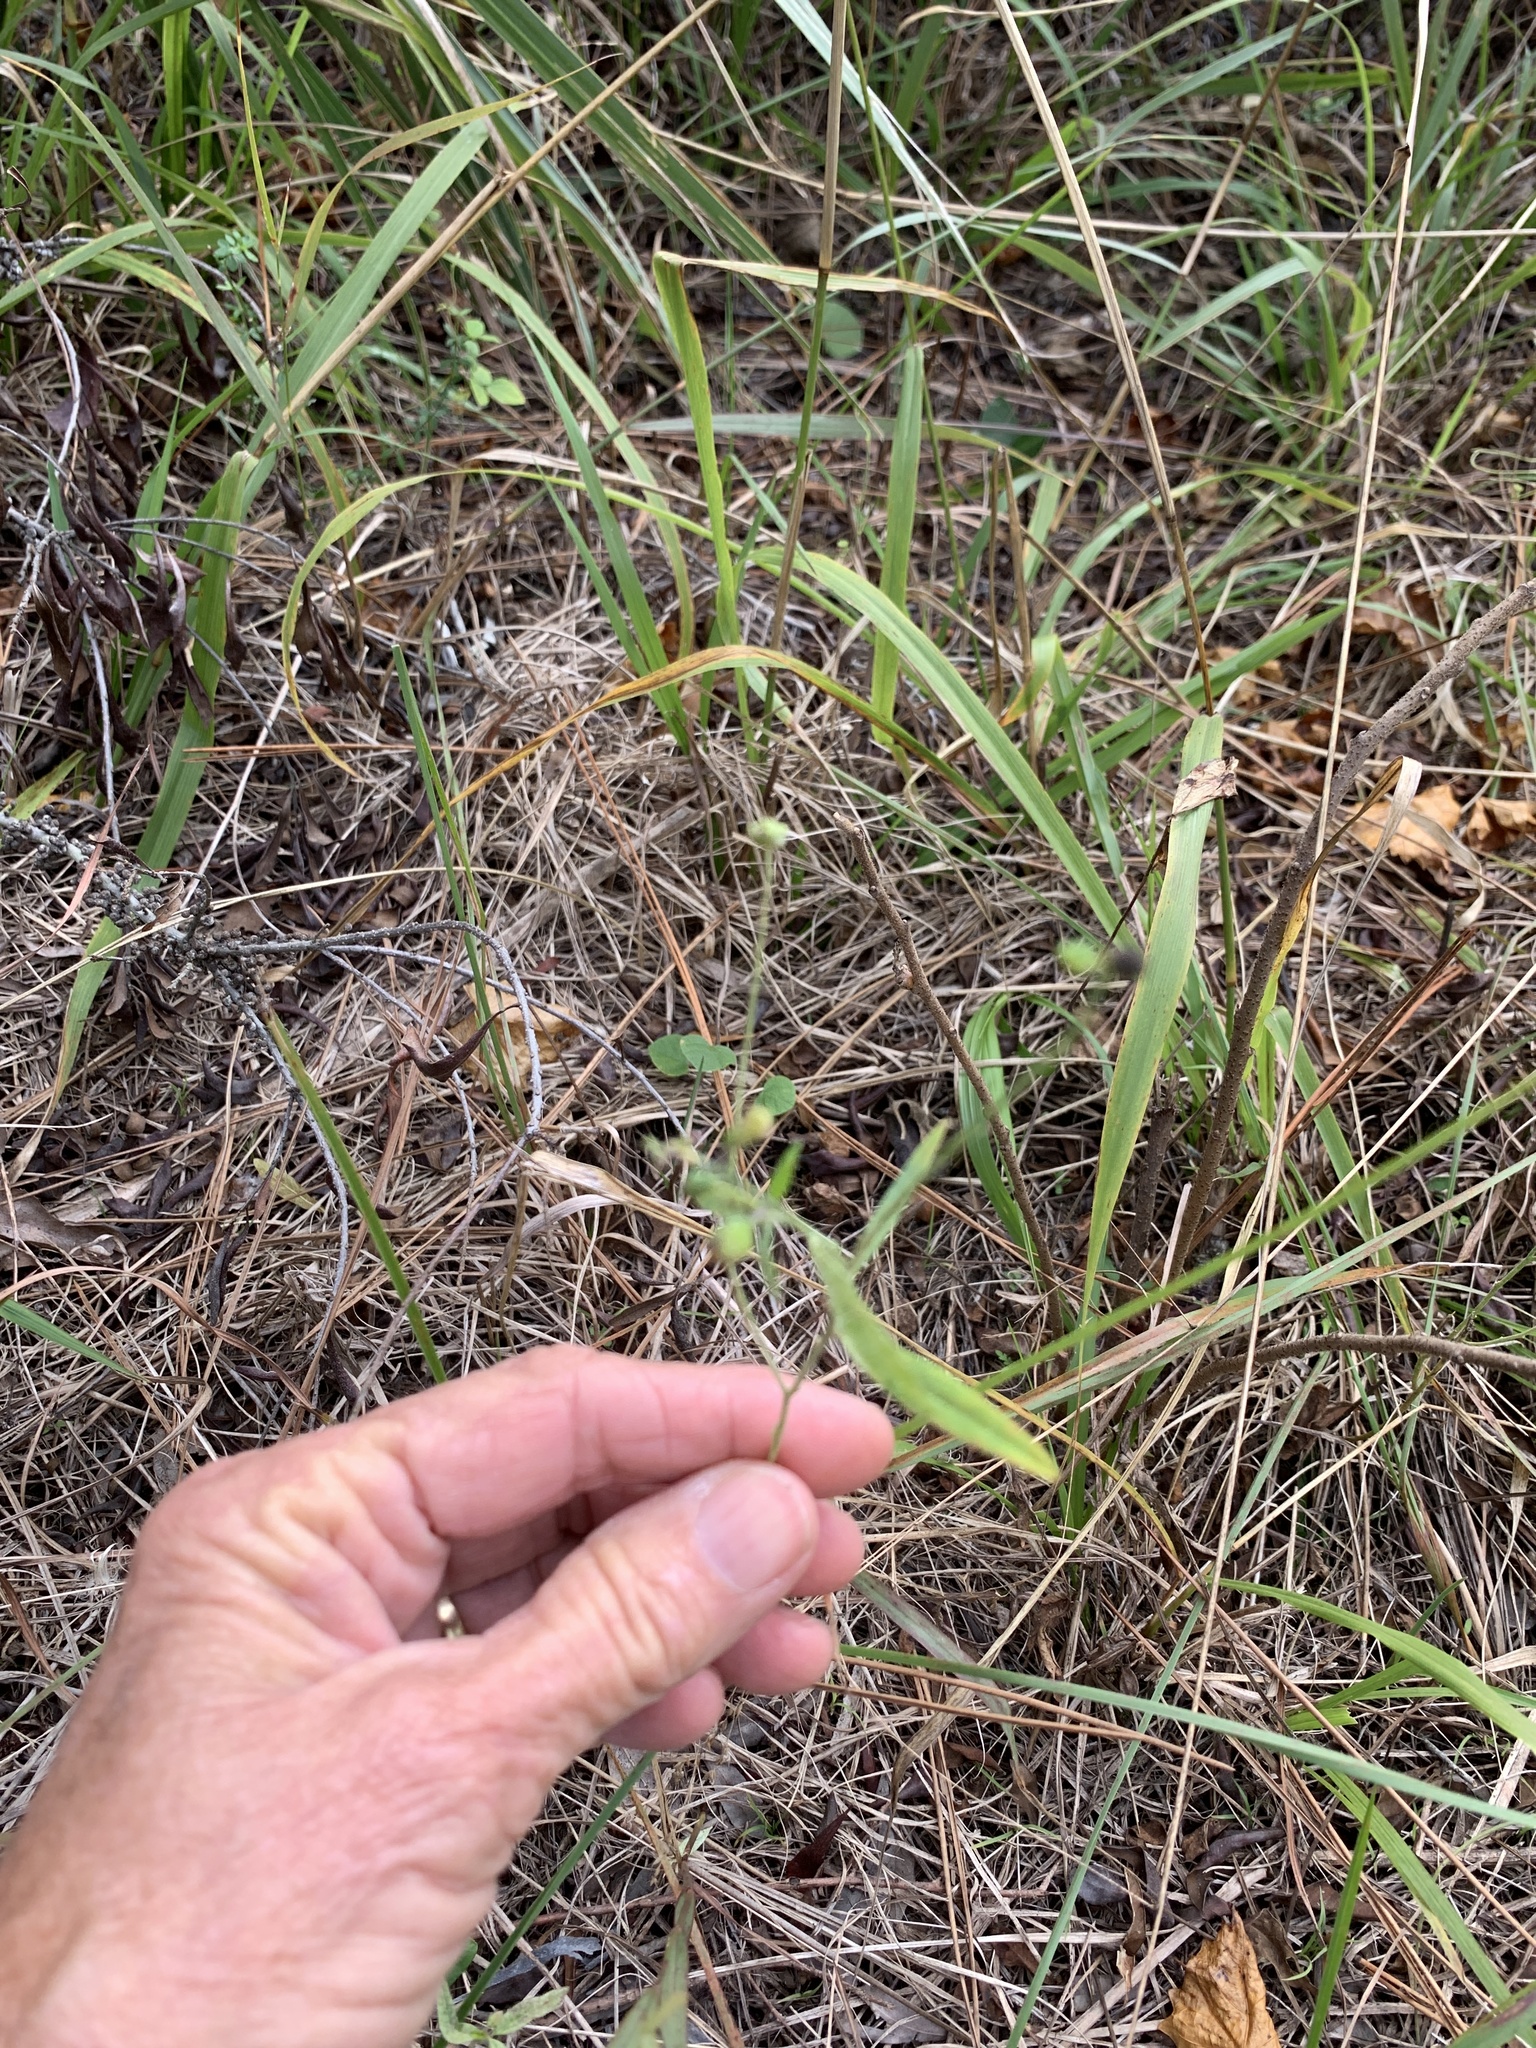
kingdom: Plantae
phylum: Tracheophyta
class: Magnoliopsida
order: Fabales
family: Polygalaceae
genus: Asemeia
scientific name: Asemeia grandiflora
